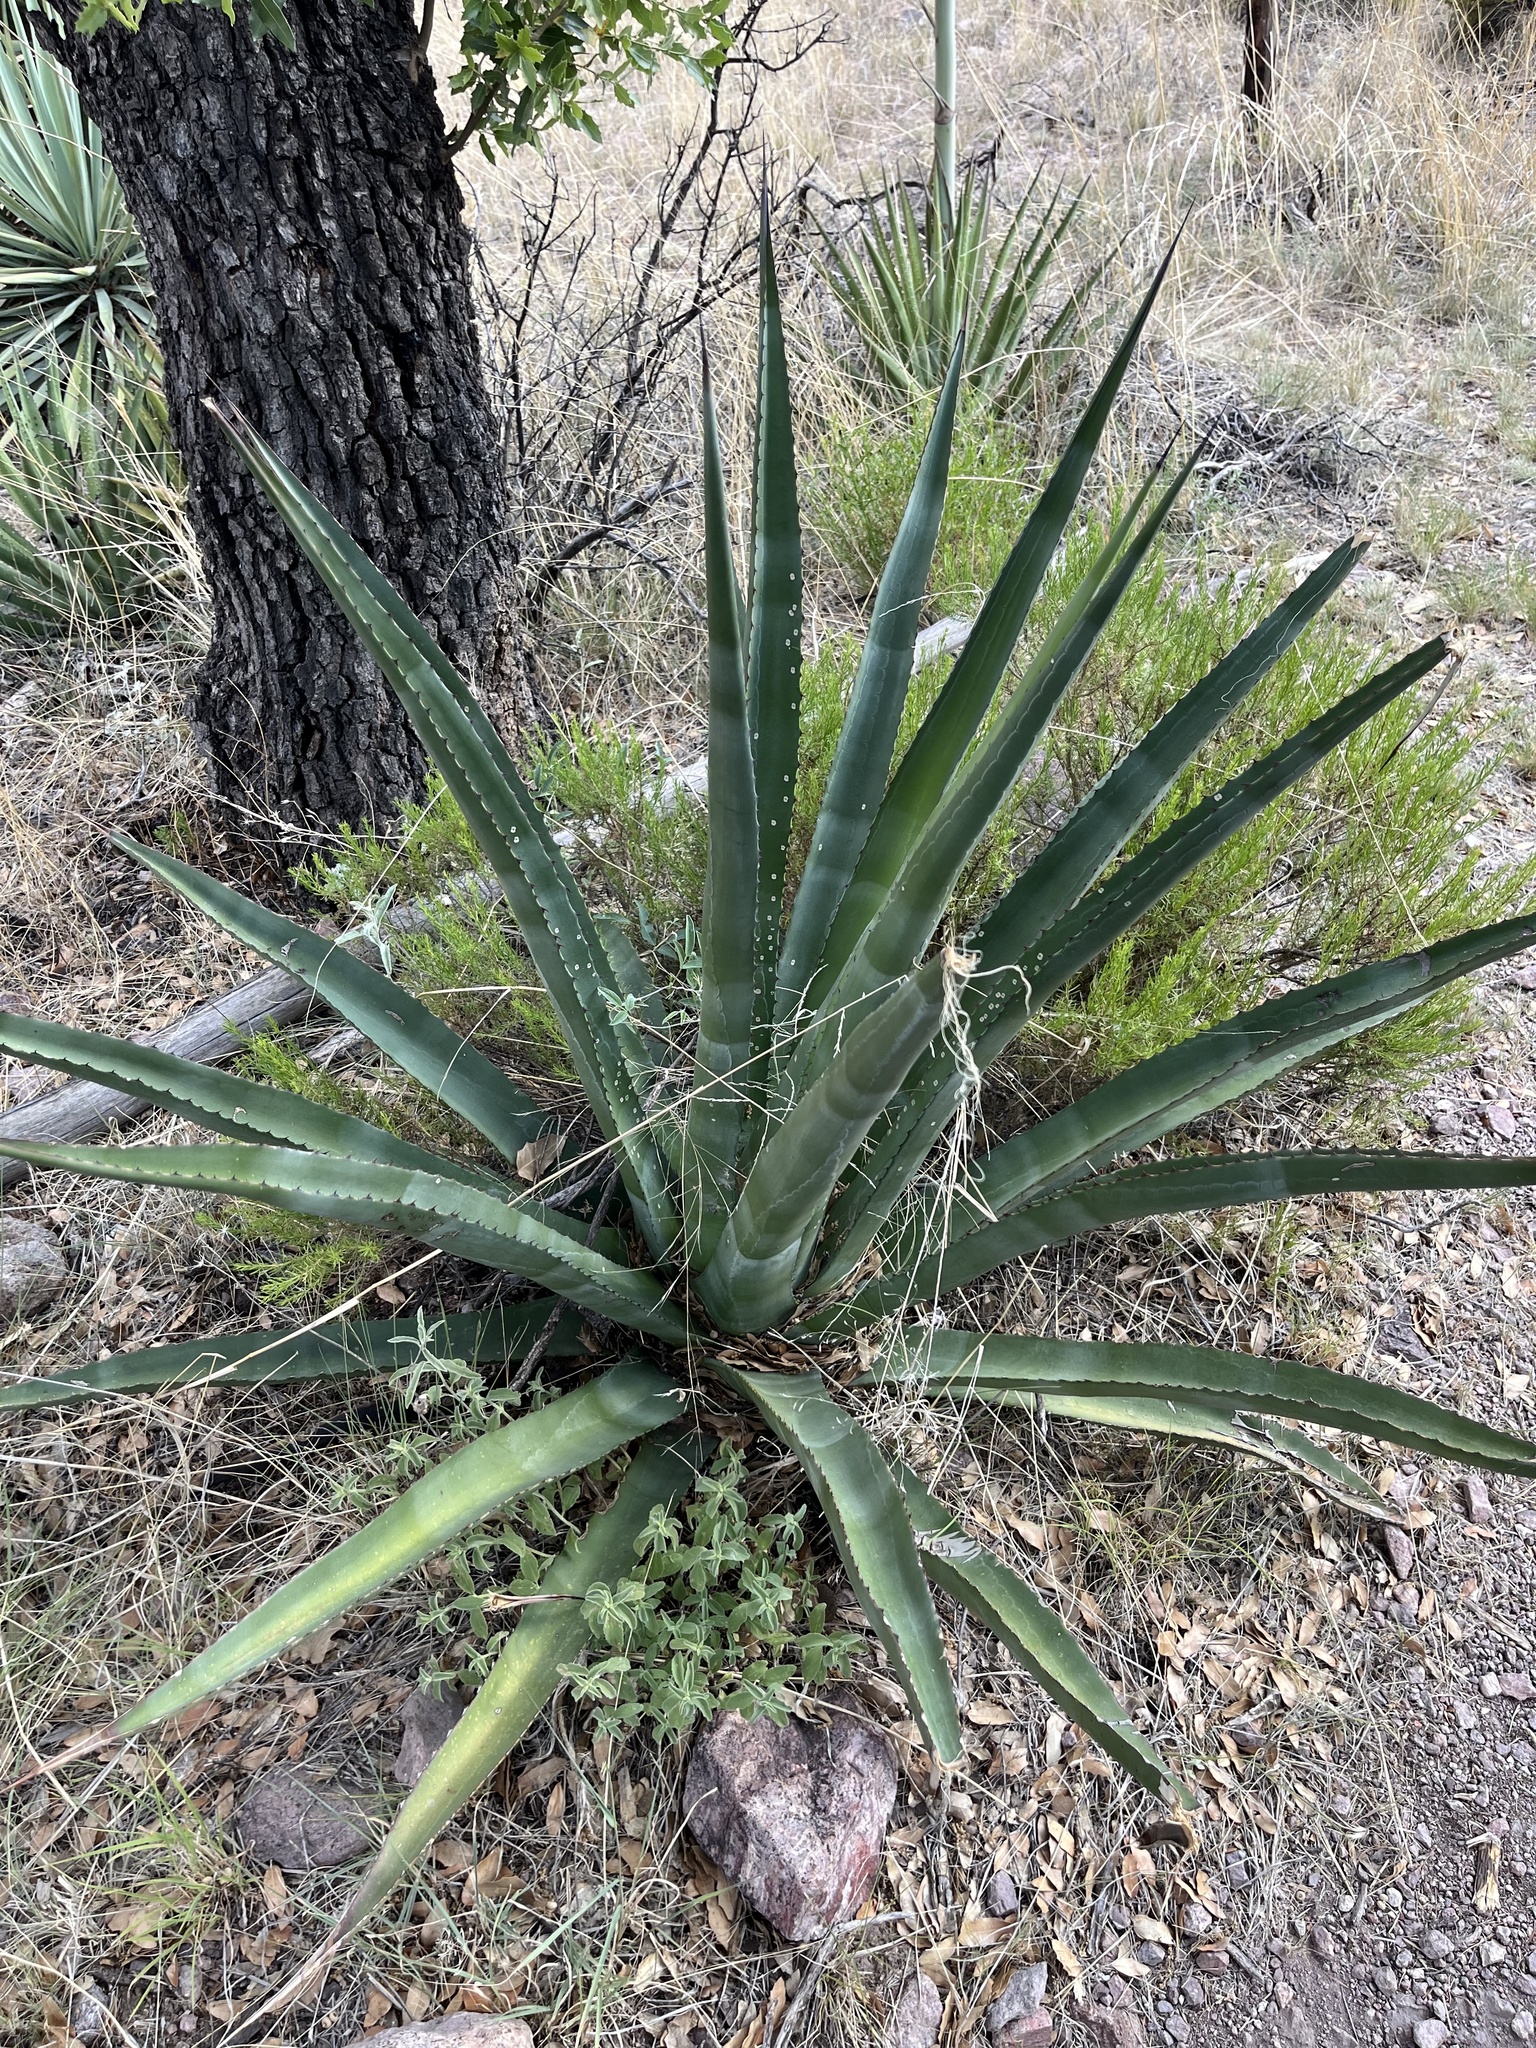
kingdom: Plantae
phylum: Tracheophyta
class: Liliopsida
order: Asparagales
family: Asparagaceae
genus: Agave
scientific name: Agave palmeri
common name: Palmer agave
